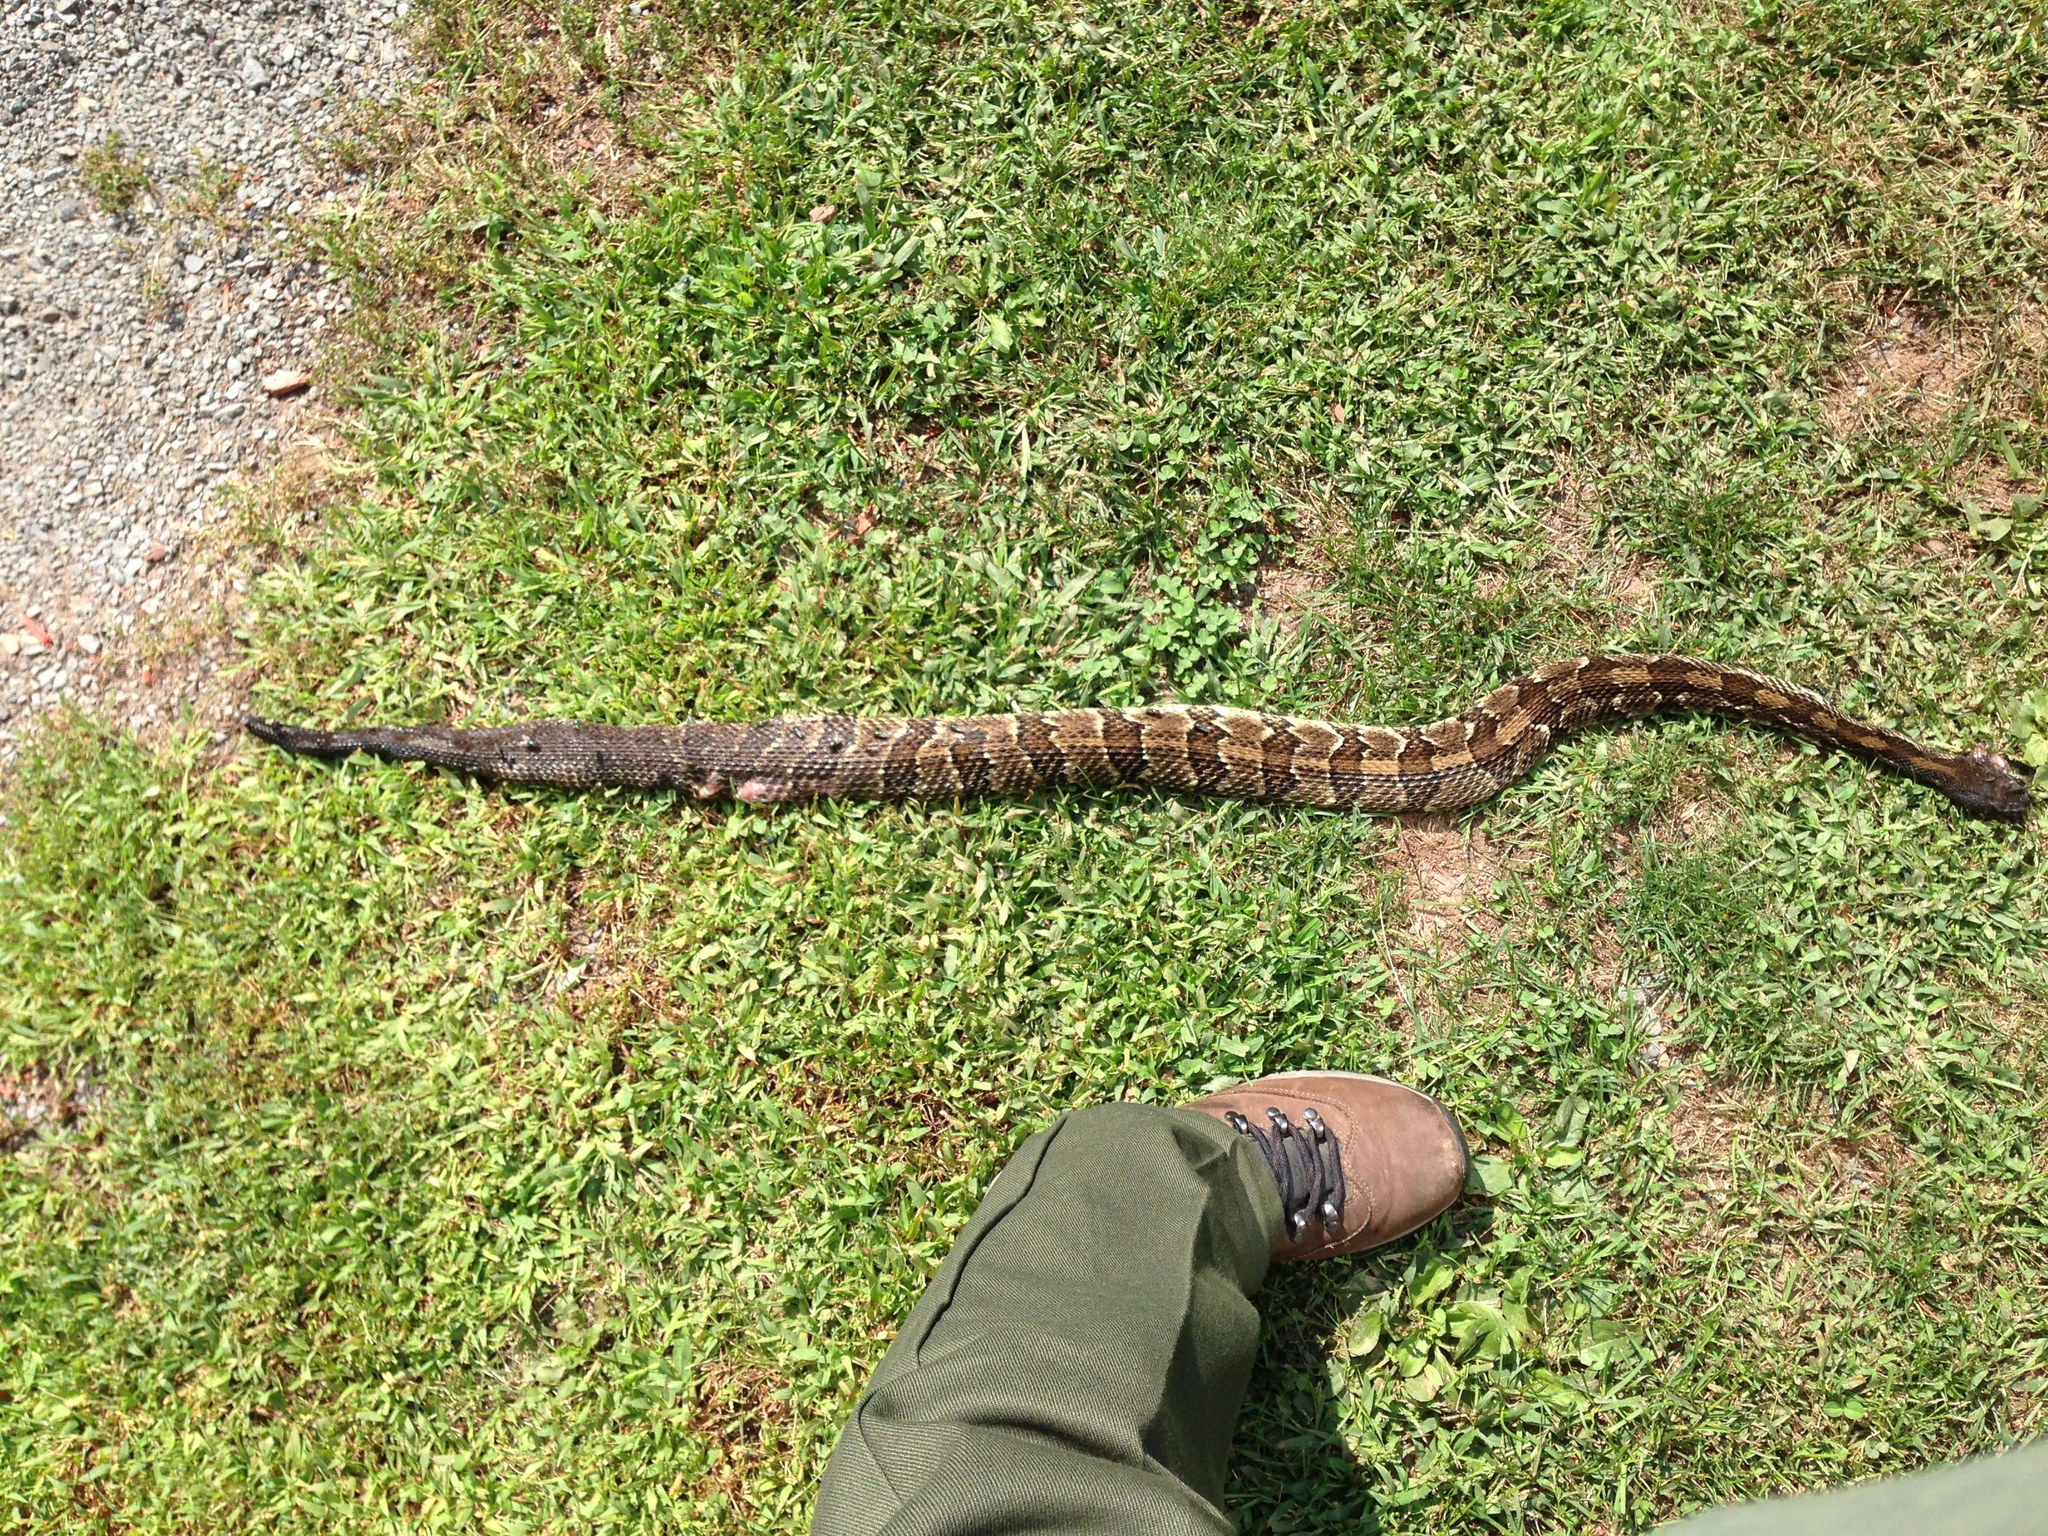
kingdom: Animalia
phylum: Chordata
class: Squamata
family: Viperidae
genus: Crotalus
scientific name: Crotalus horridus
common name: Timber rattlesnake
